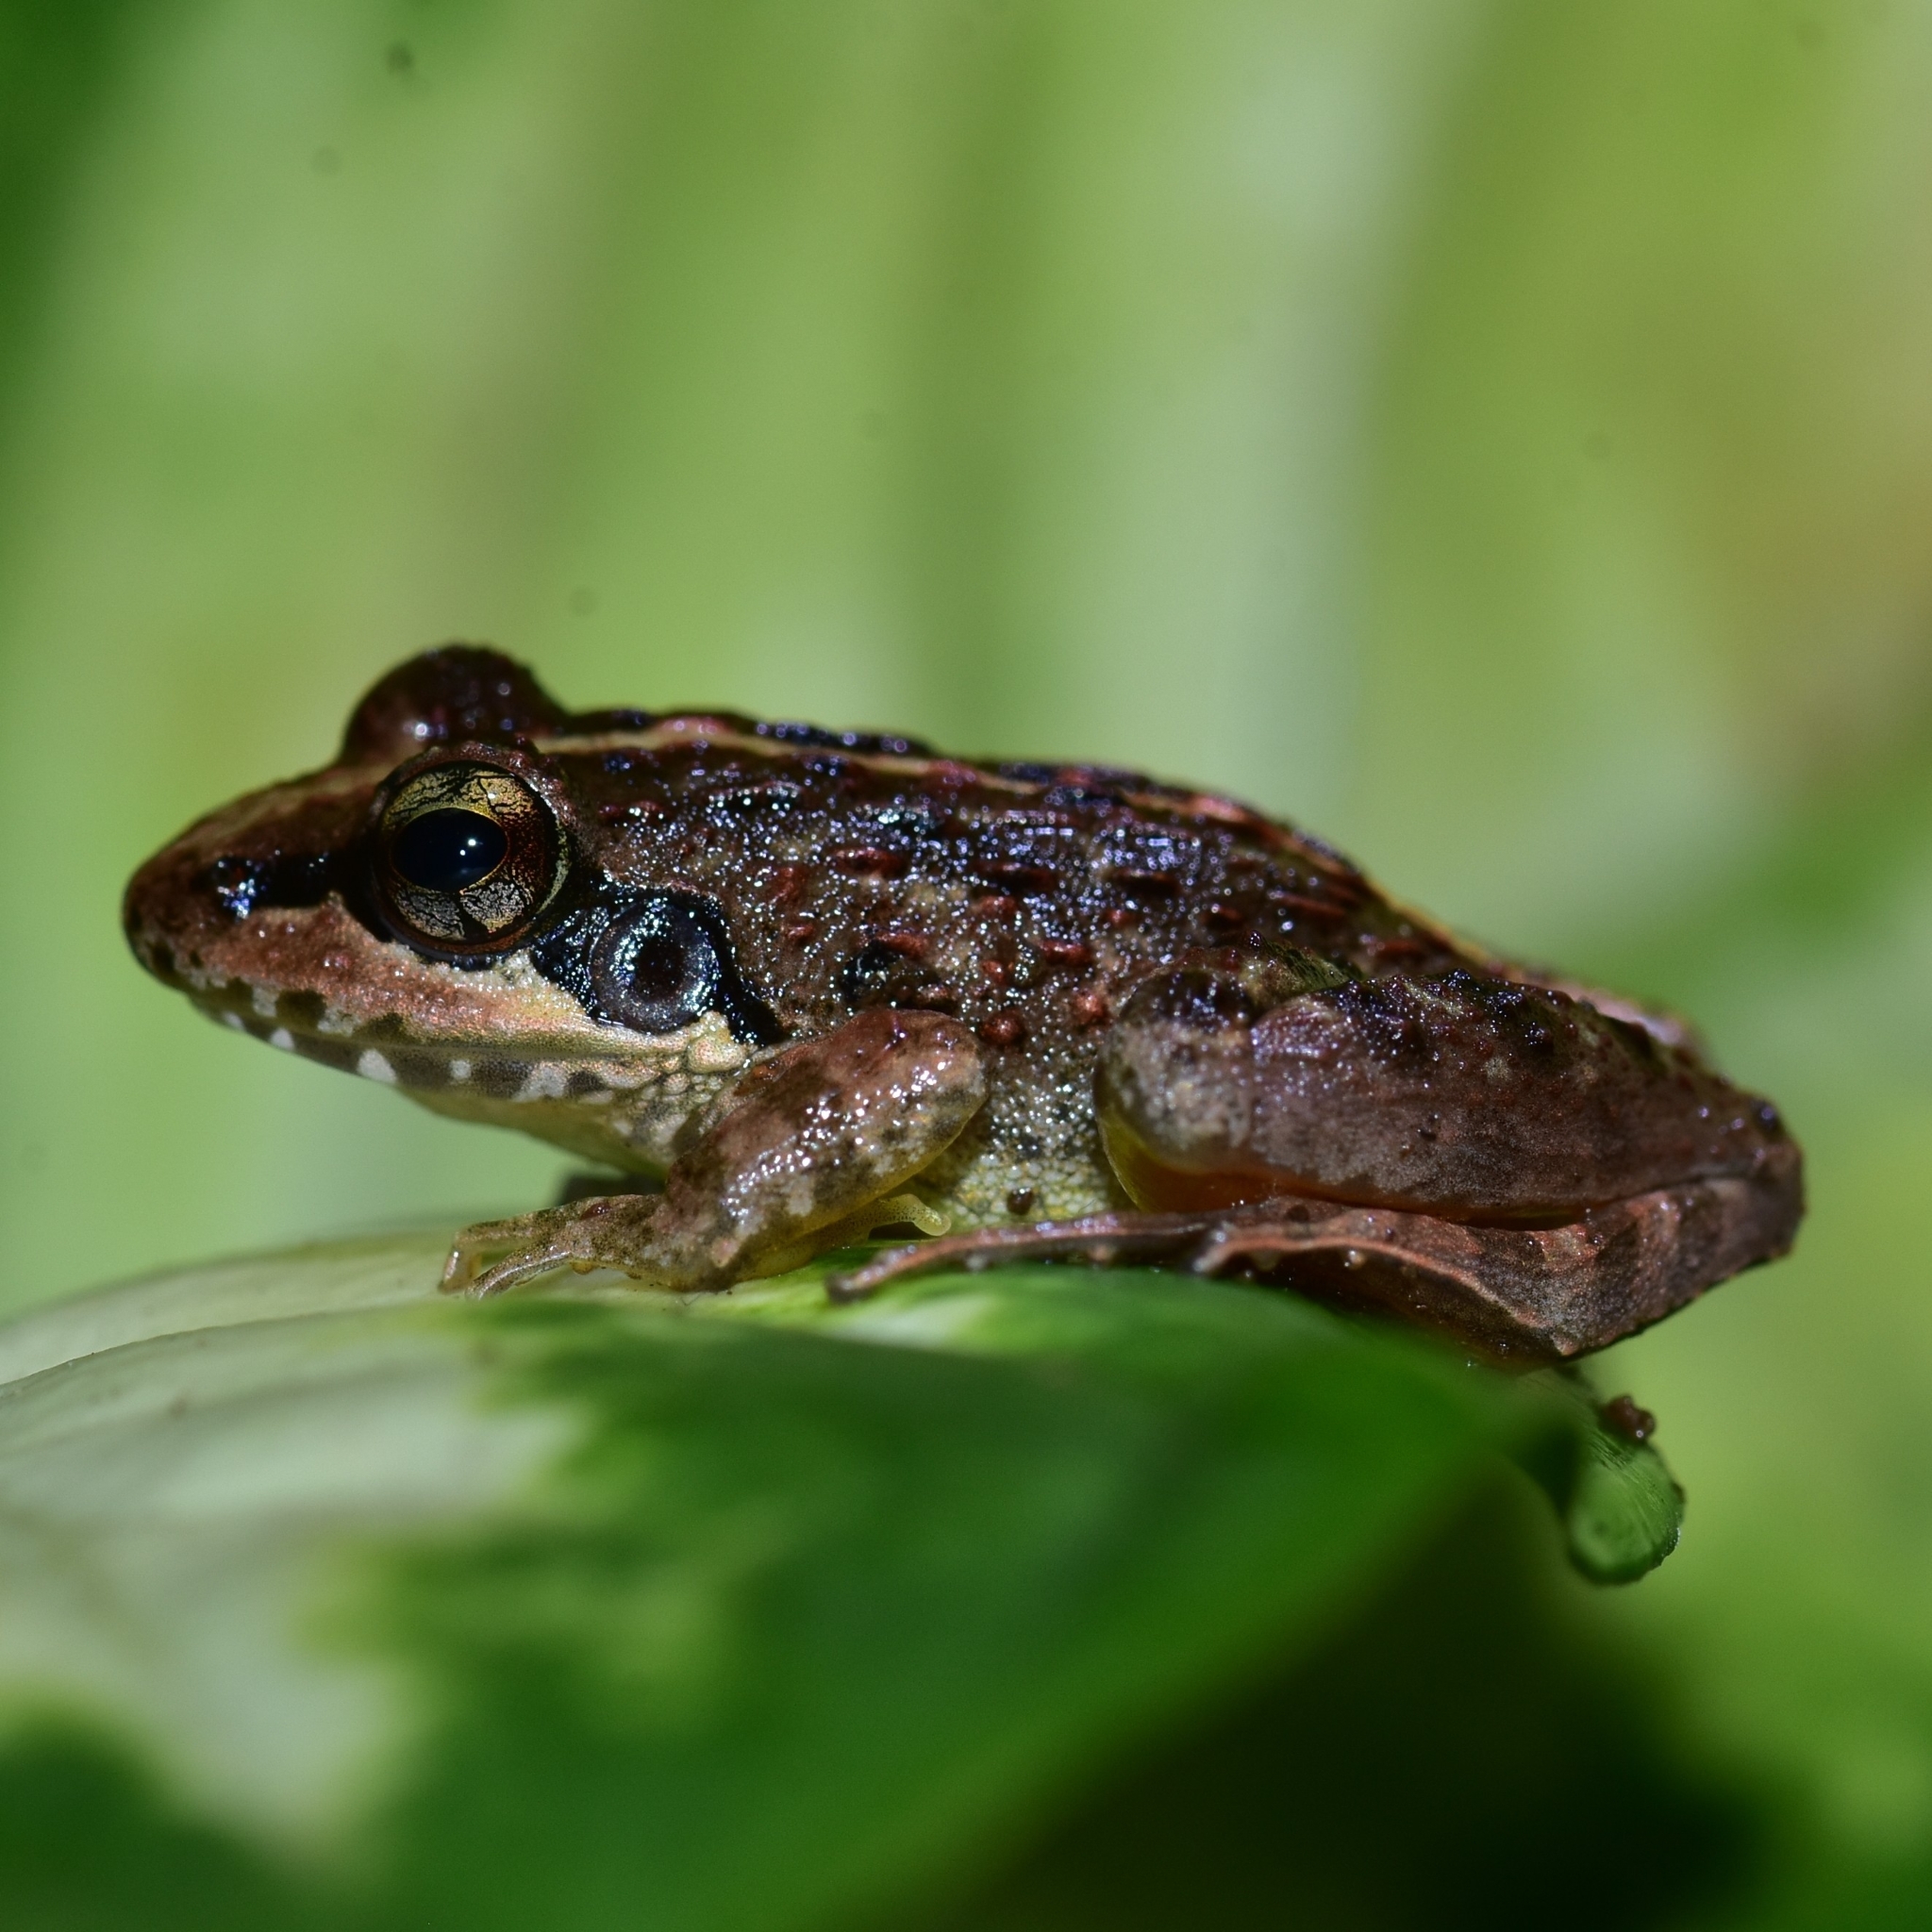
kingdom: Animalia
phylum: Chordata
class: Amphibia
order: Anura
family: Ranixalidae
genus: Indirana
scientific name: Indirana brachytarsus
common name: Günther's leaping frog
